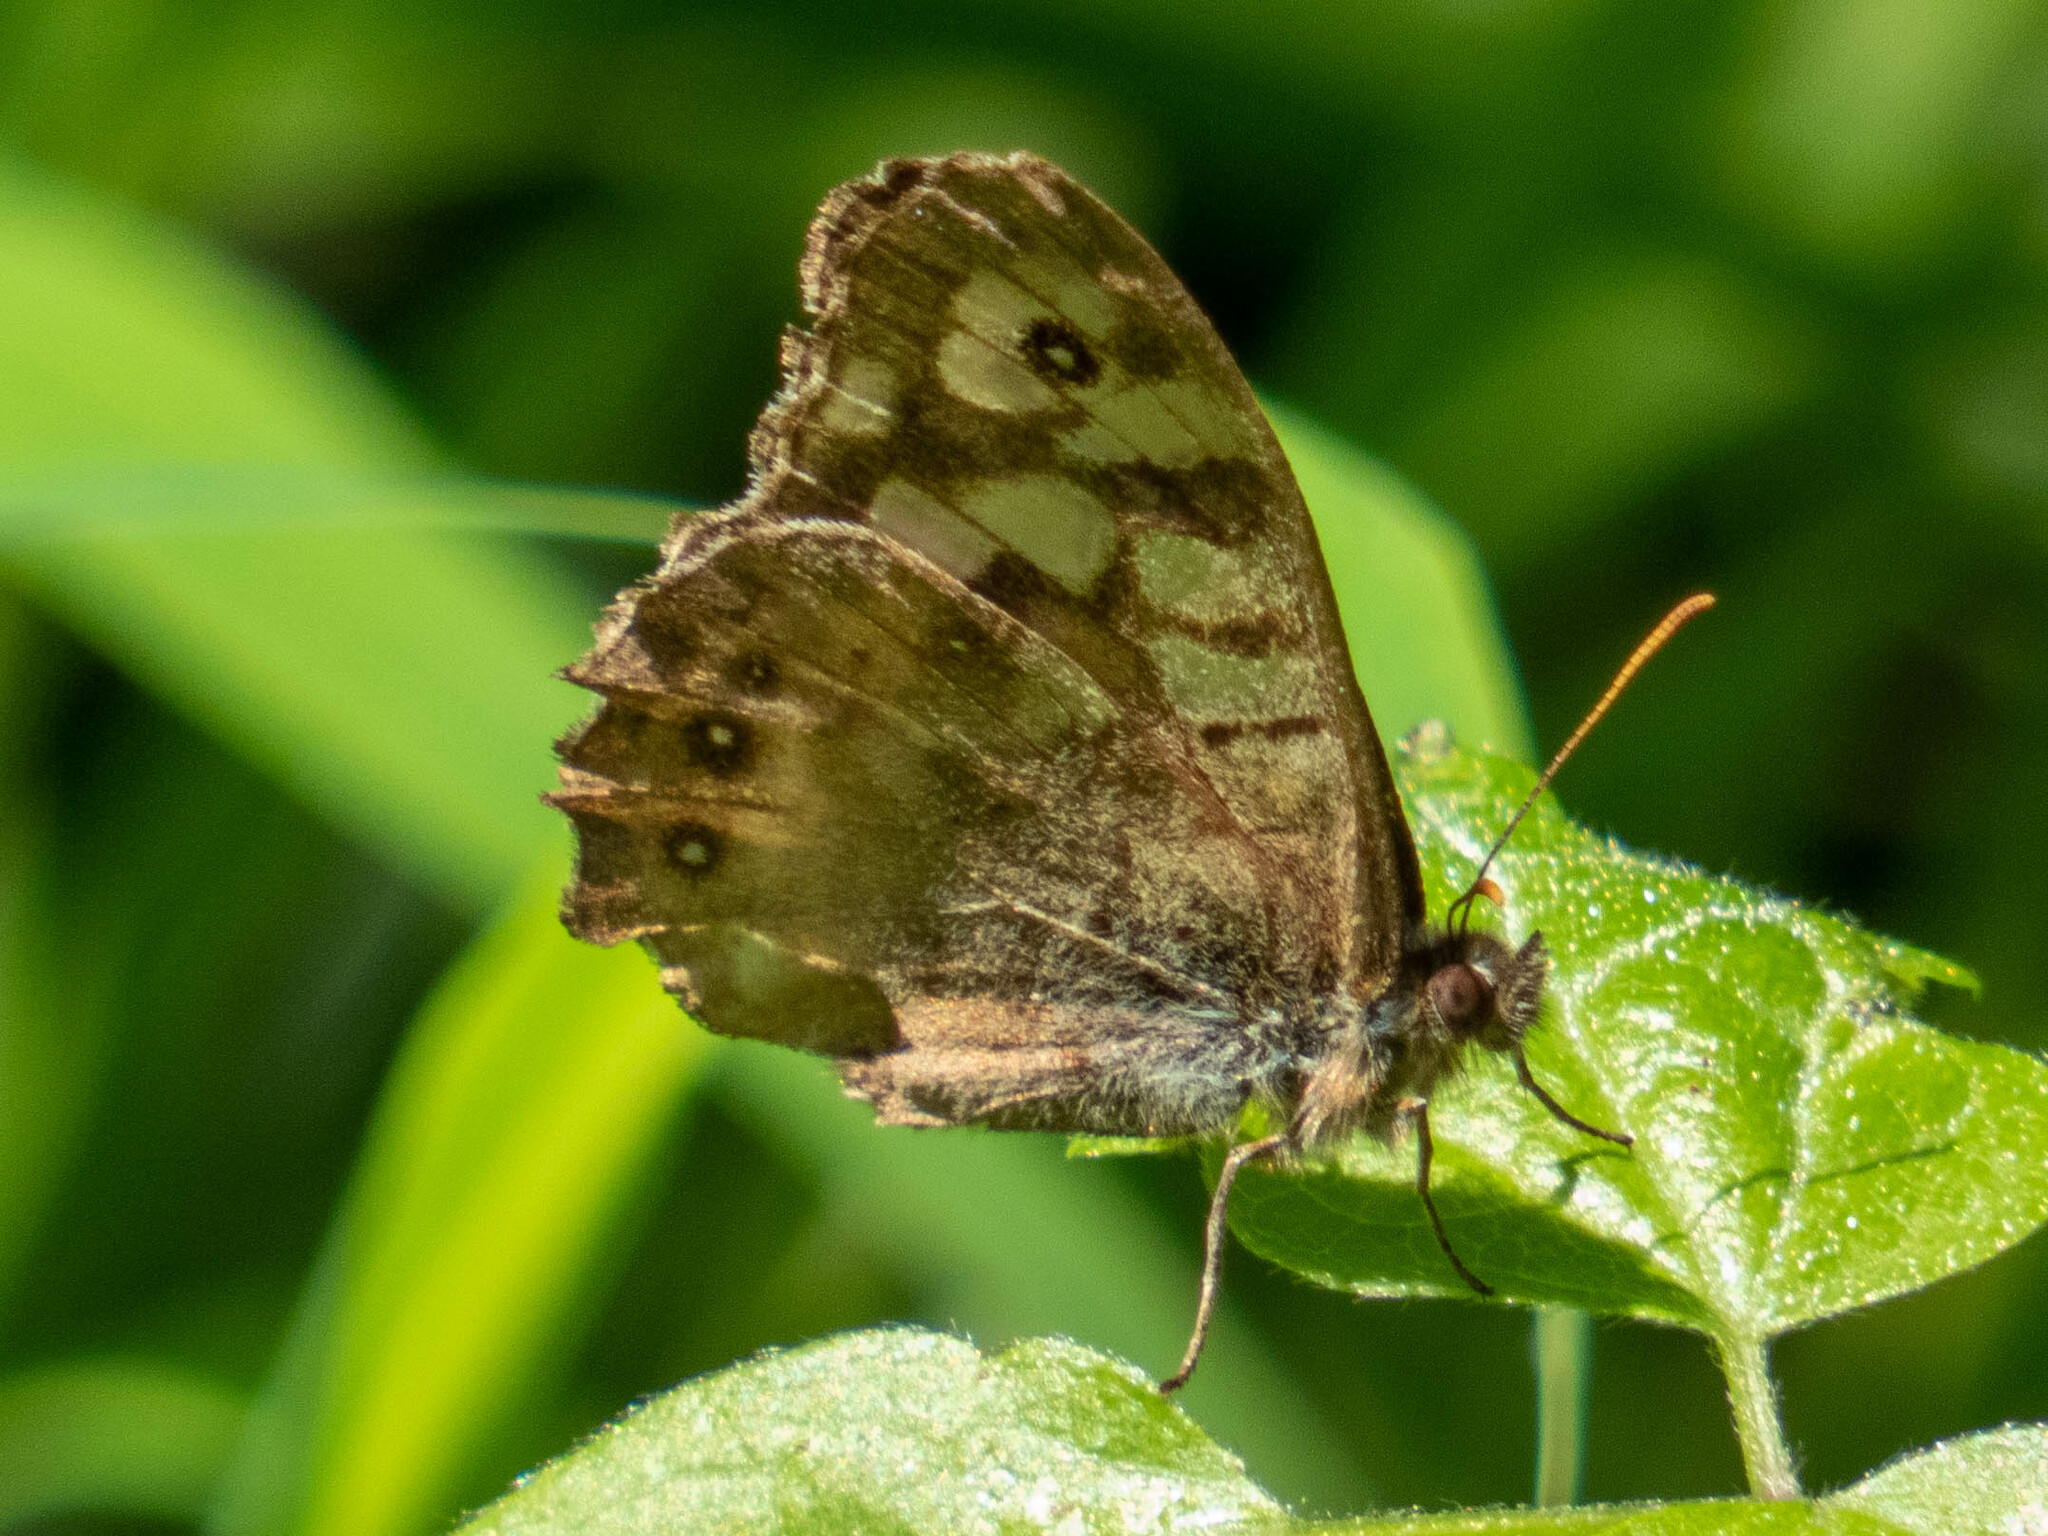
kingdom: Animalia
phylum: Arthropoda
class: Insecta
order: Lepidoptera
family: Nymphalidae
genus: Pararge
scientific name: Pararge aegeria
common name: Speckled wood
